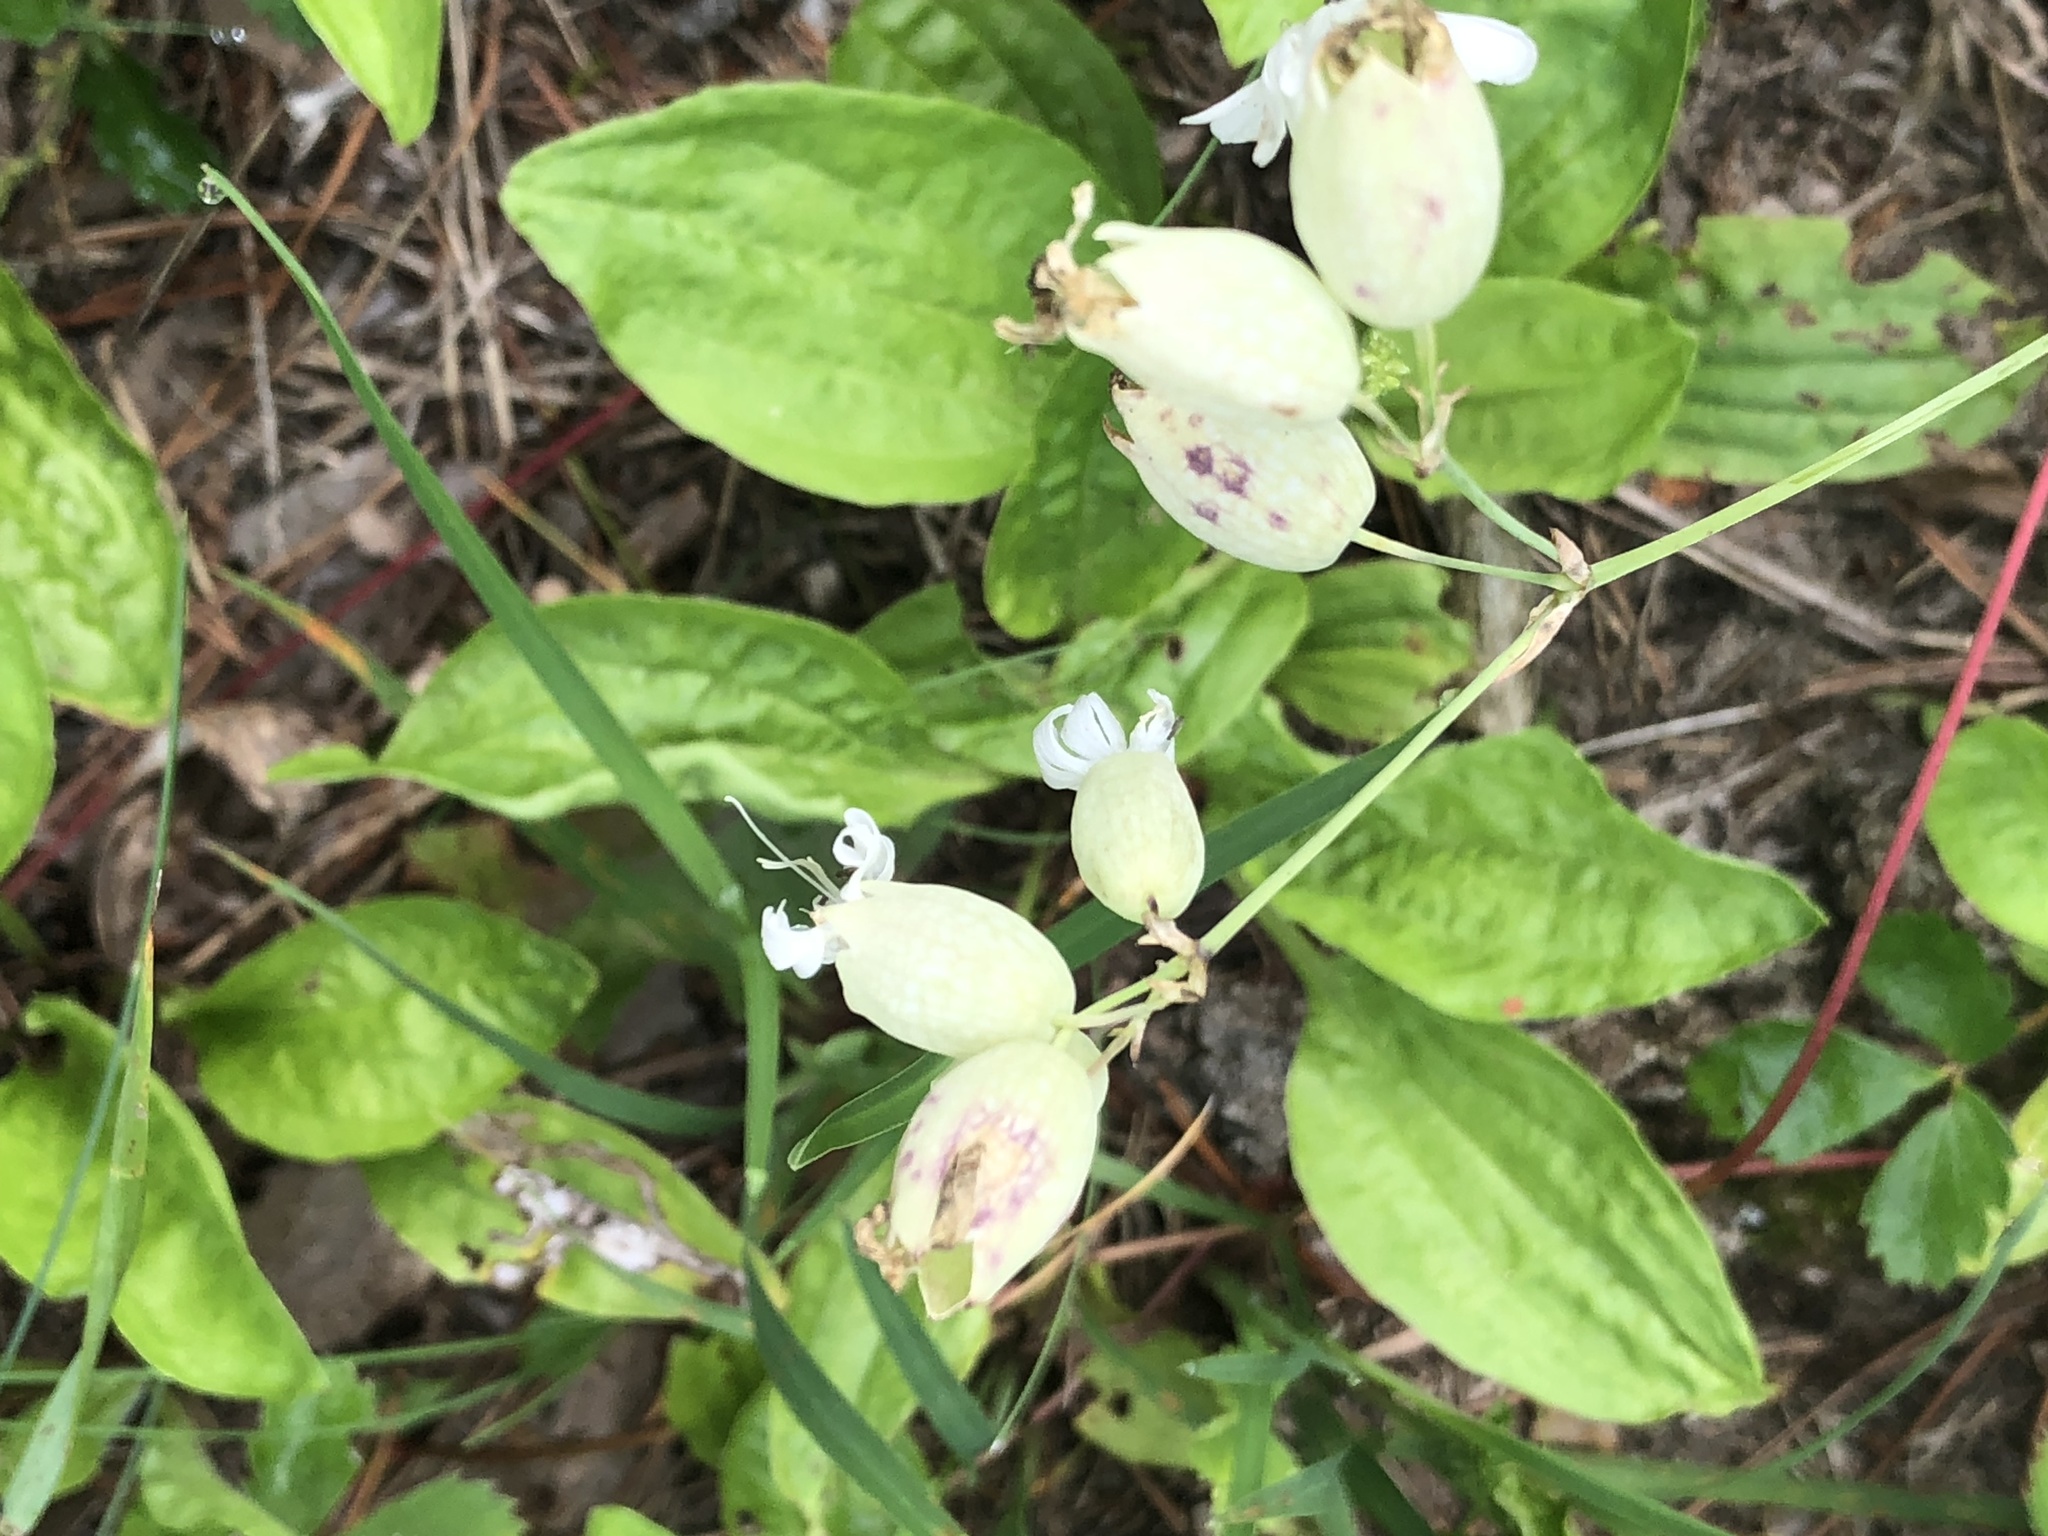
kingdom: Plantae
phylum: Tracheophyta
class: Magnoliopsida
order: Caryophyllales
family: Caryophyllaceae
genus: Silene
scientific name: Silene vulgaris
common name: Bladder campion
